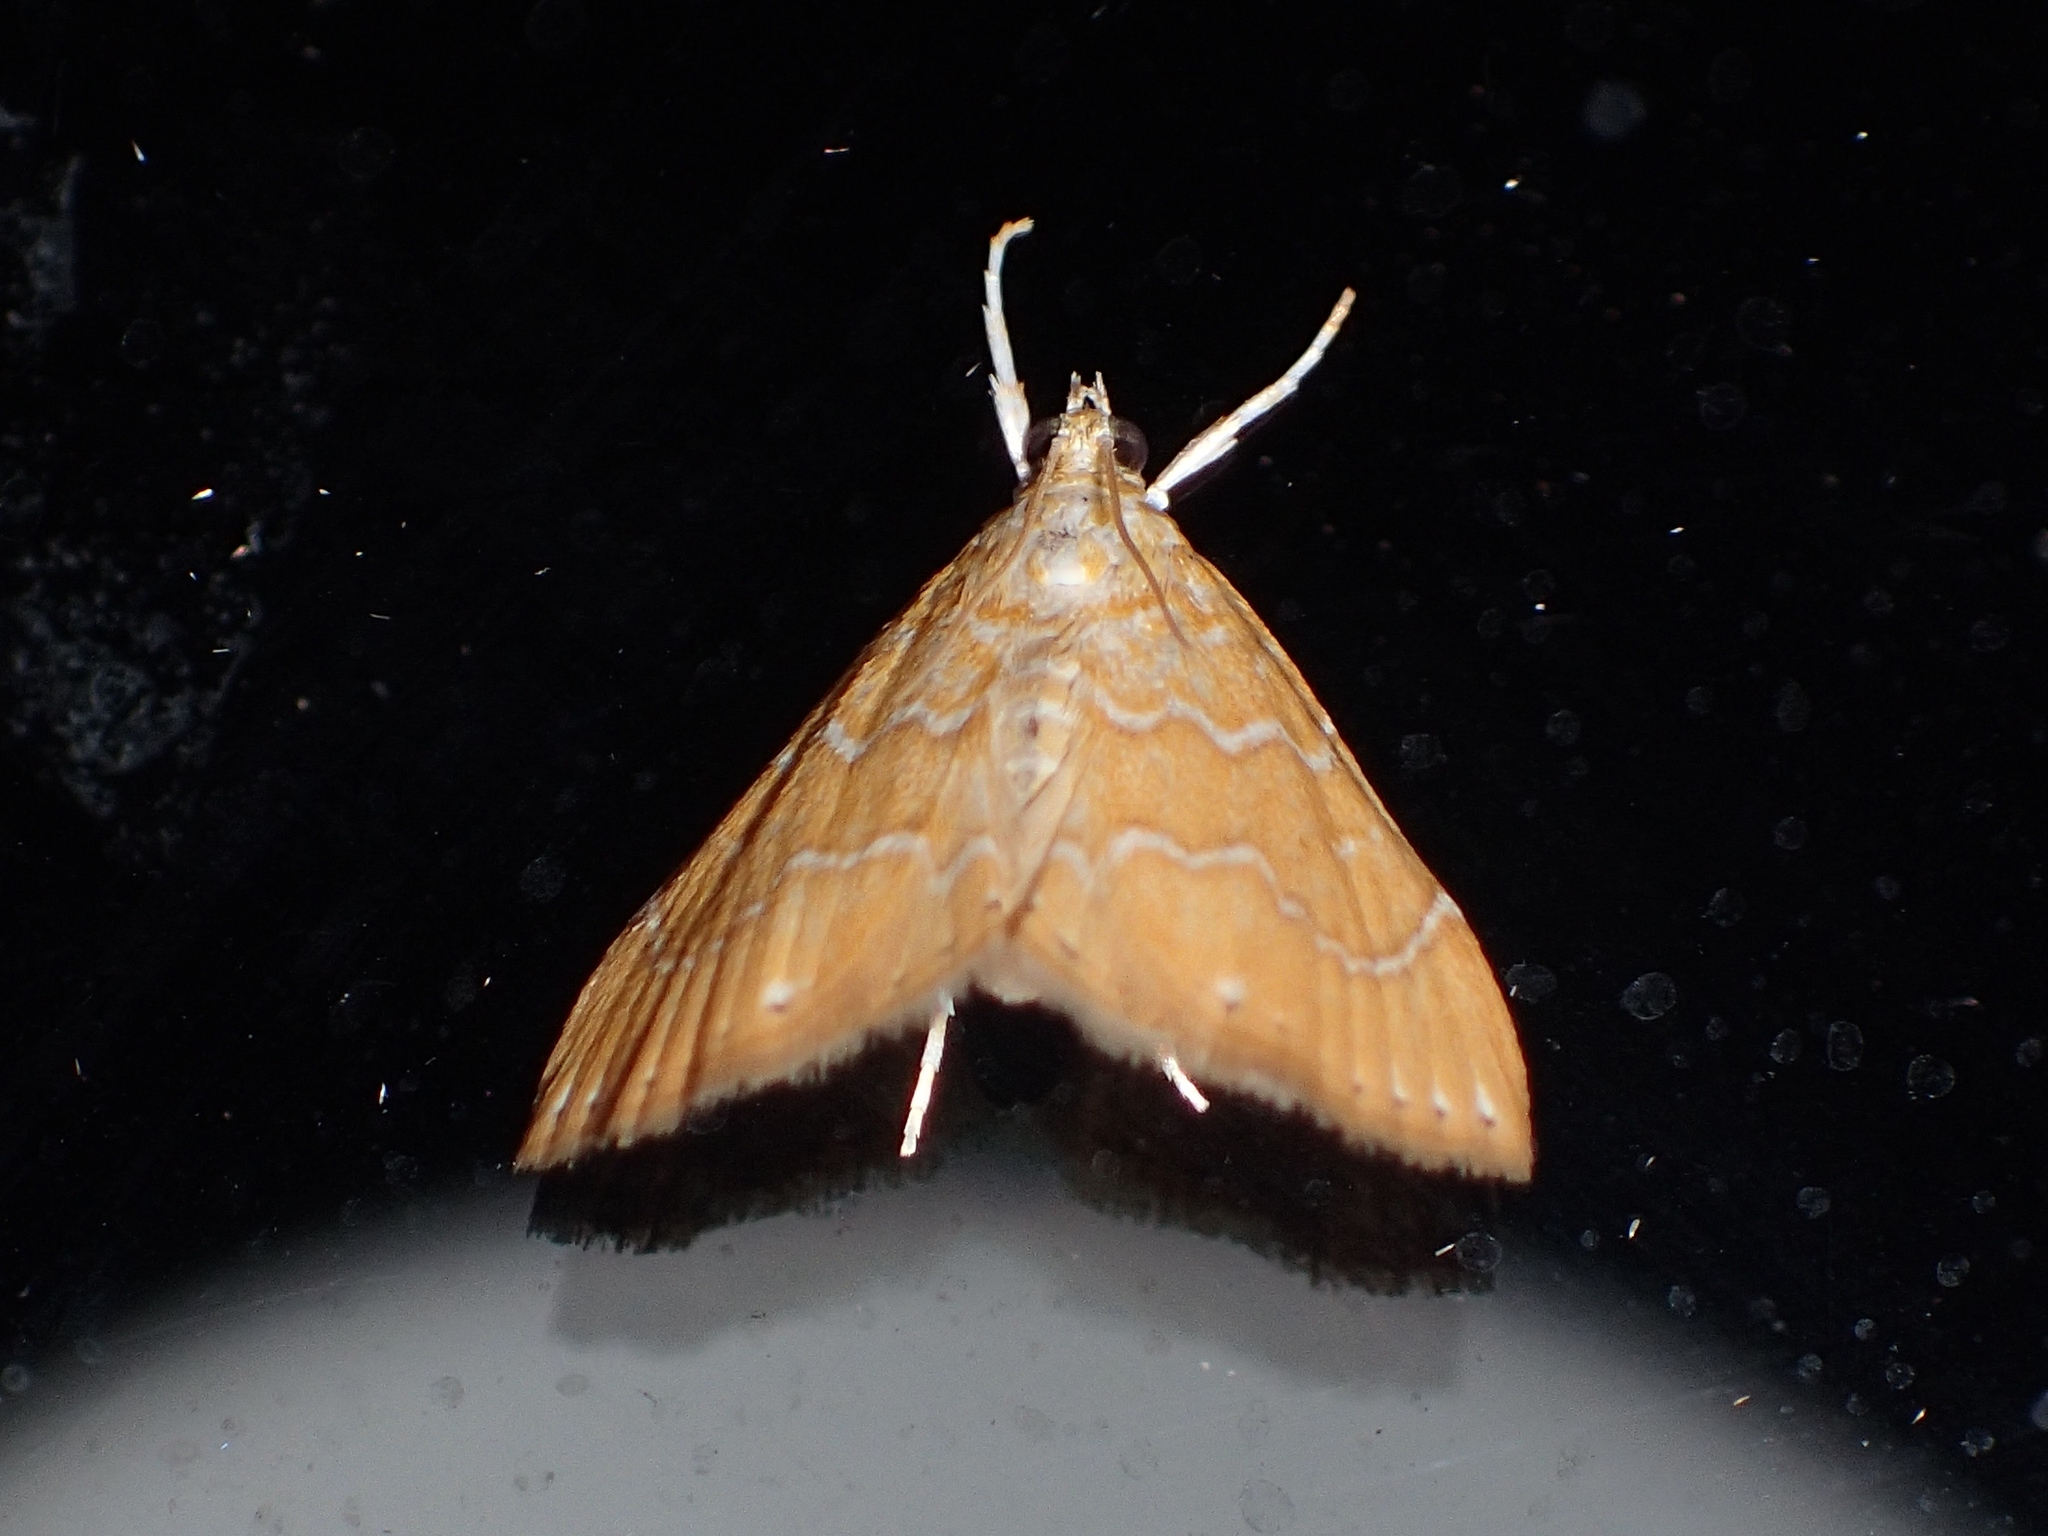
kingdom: Animalia
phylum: Arthropoda
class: Insecta
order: Lepidoptera
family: Crambidae
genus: Glaphyria
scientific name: Glaphyria sesquistrialis
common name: White-roped glaphyria
